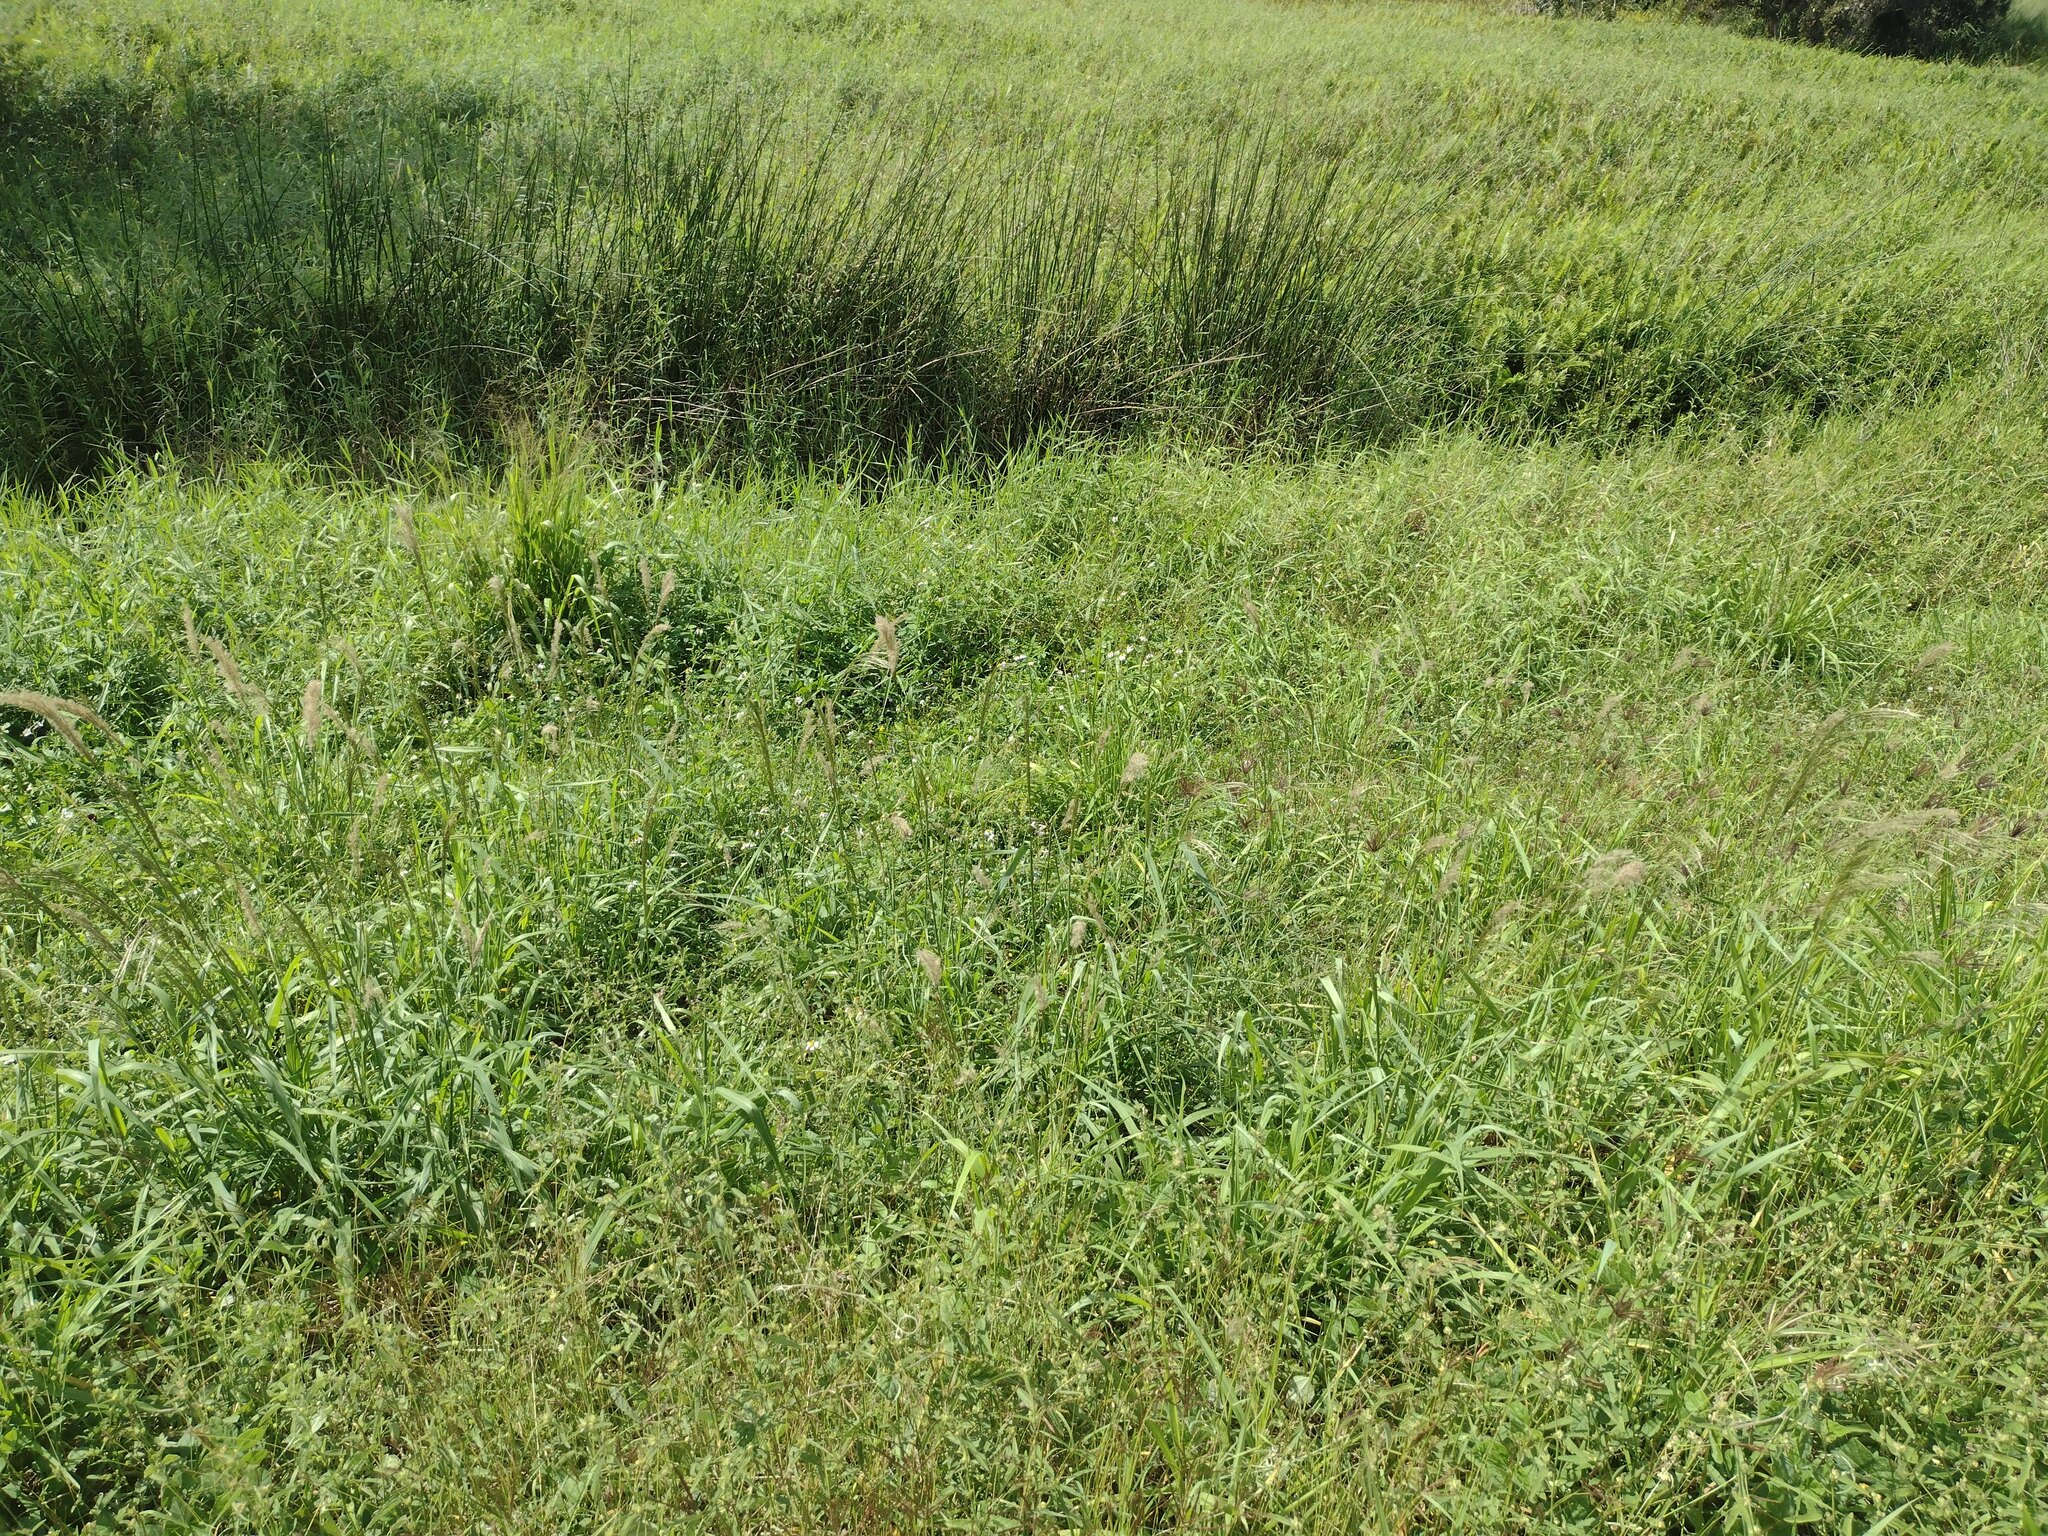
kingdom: Plantae
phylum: Tracheophyta
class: Liliopsida
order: Poales
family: Poaceae
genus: Digitaria
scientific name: Digitaria insularis
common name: Sourgrass
